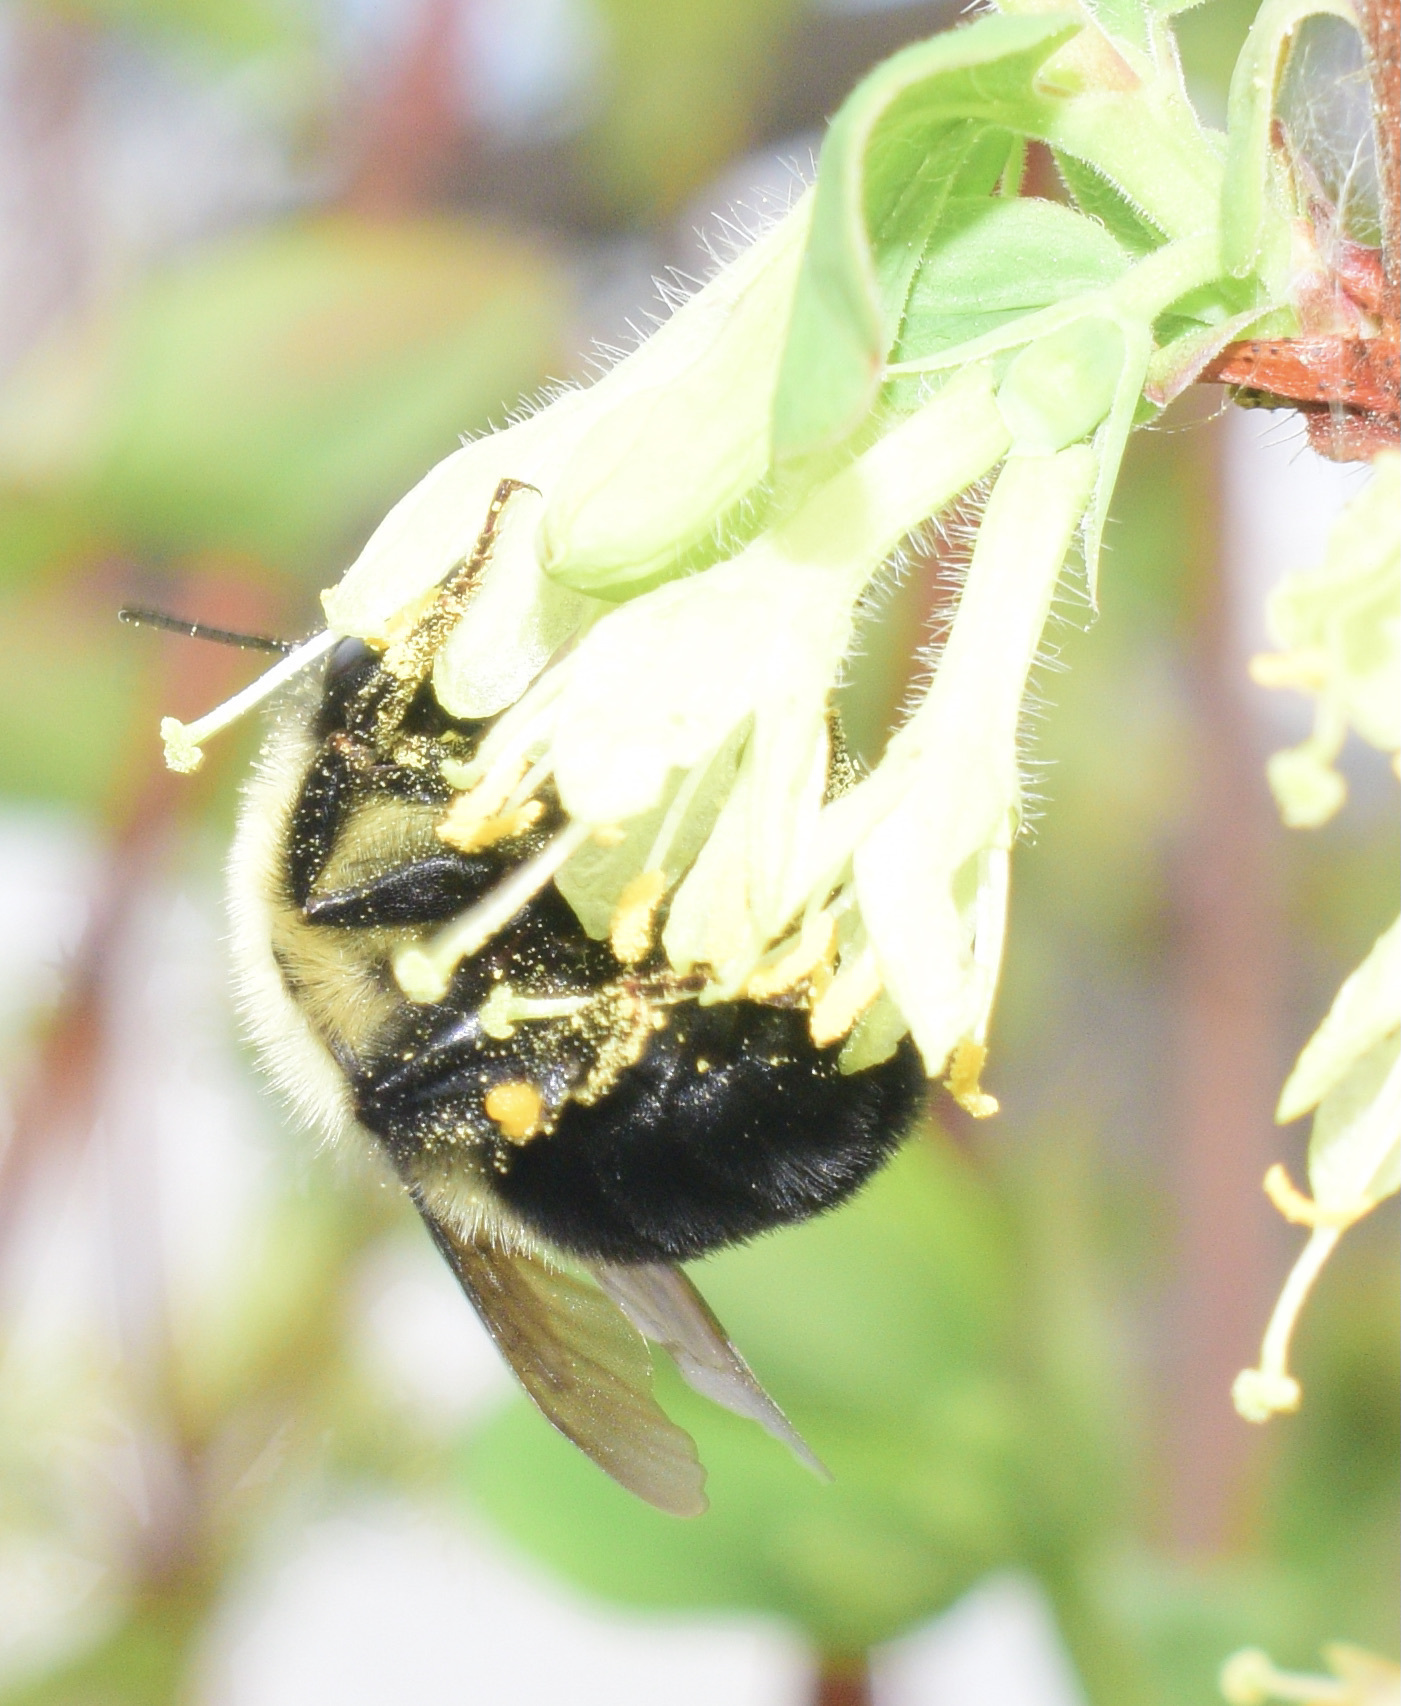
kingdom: Animalia
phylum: Arthropoda
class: Insecta
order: Hymenoptera
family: Apidae
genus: Bombus
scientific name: Bombus bimaculatus
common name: Two-spotted bumble bee
